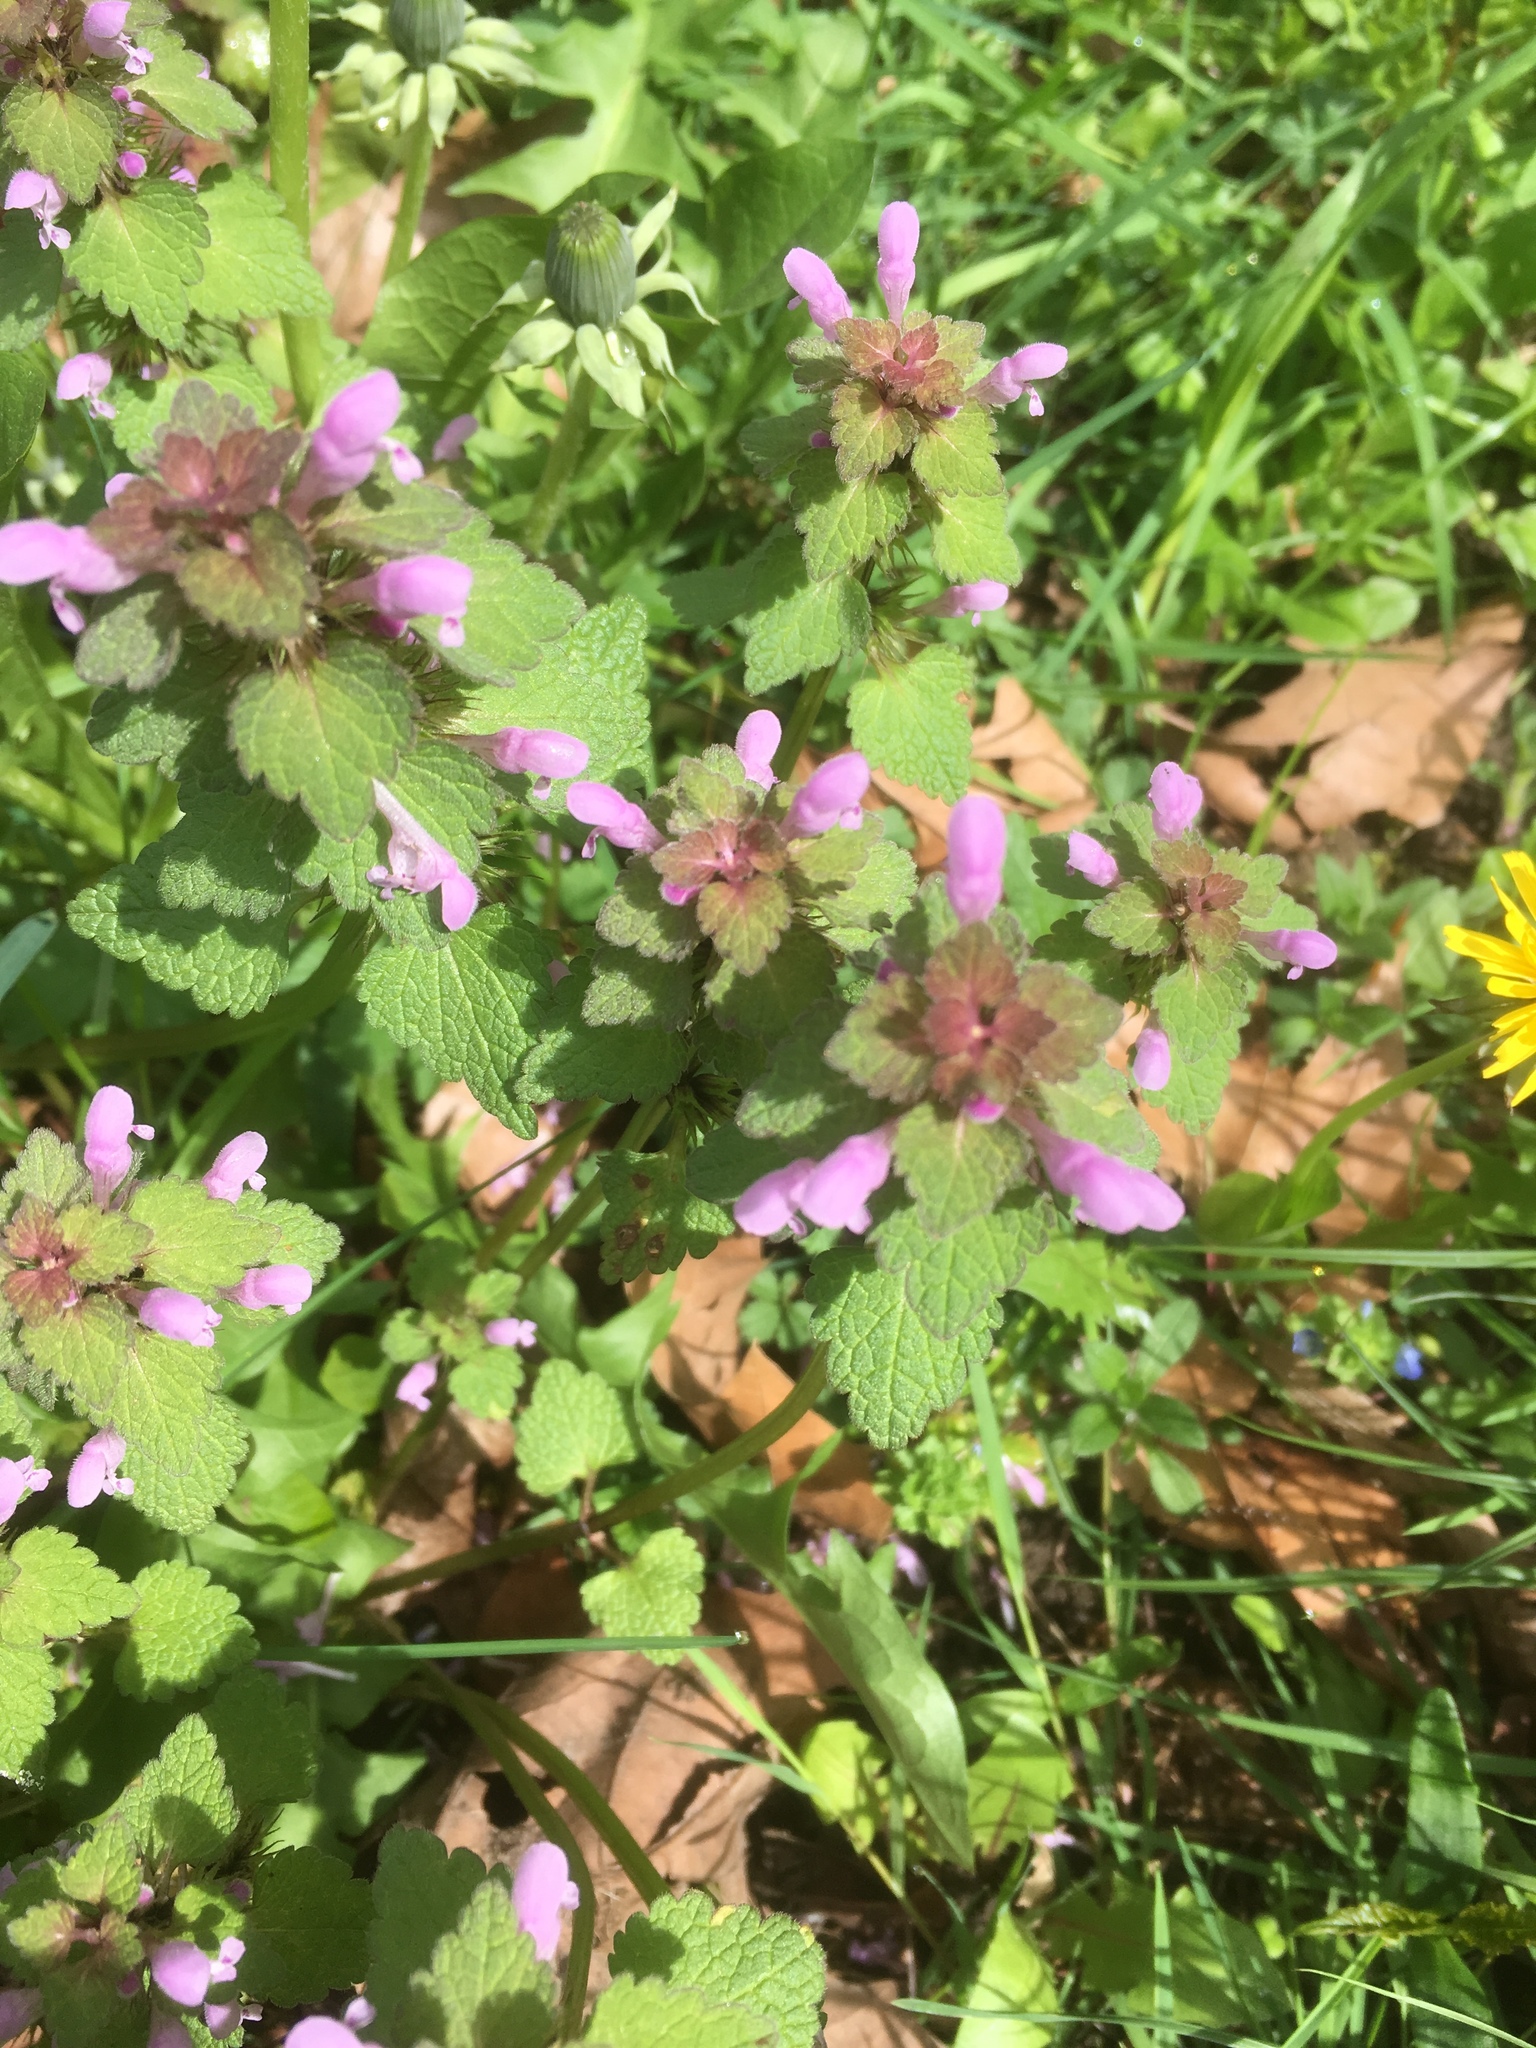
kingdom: Plantae
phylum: Tracheophyta
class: Magnoliopsida
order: Lamiales
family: Lamiaceae
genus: Lamium
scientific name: Lamium purpureum
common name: Red dead-nettle
